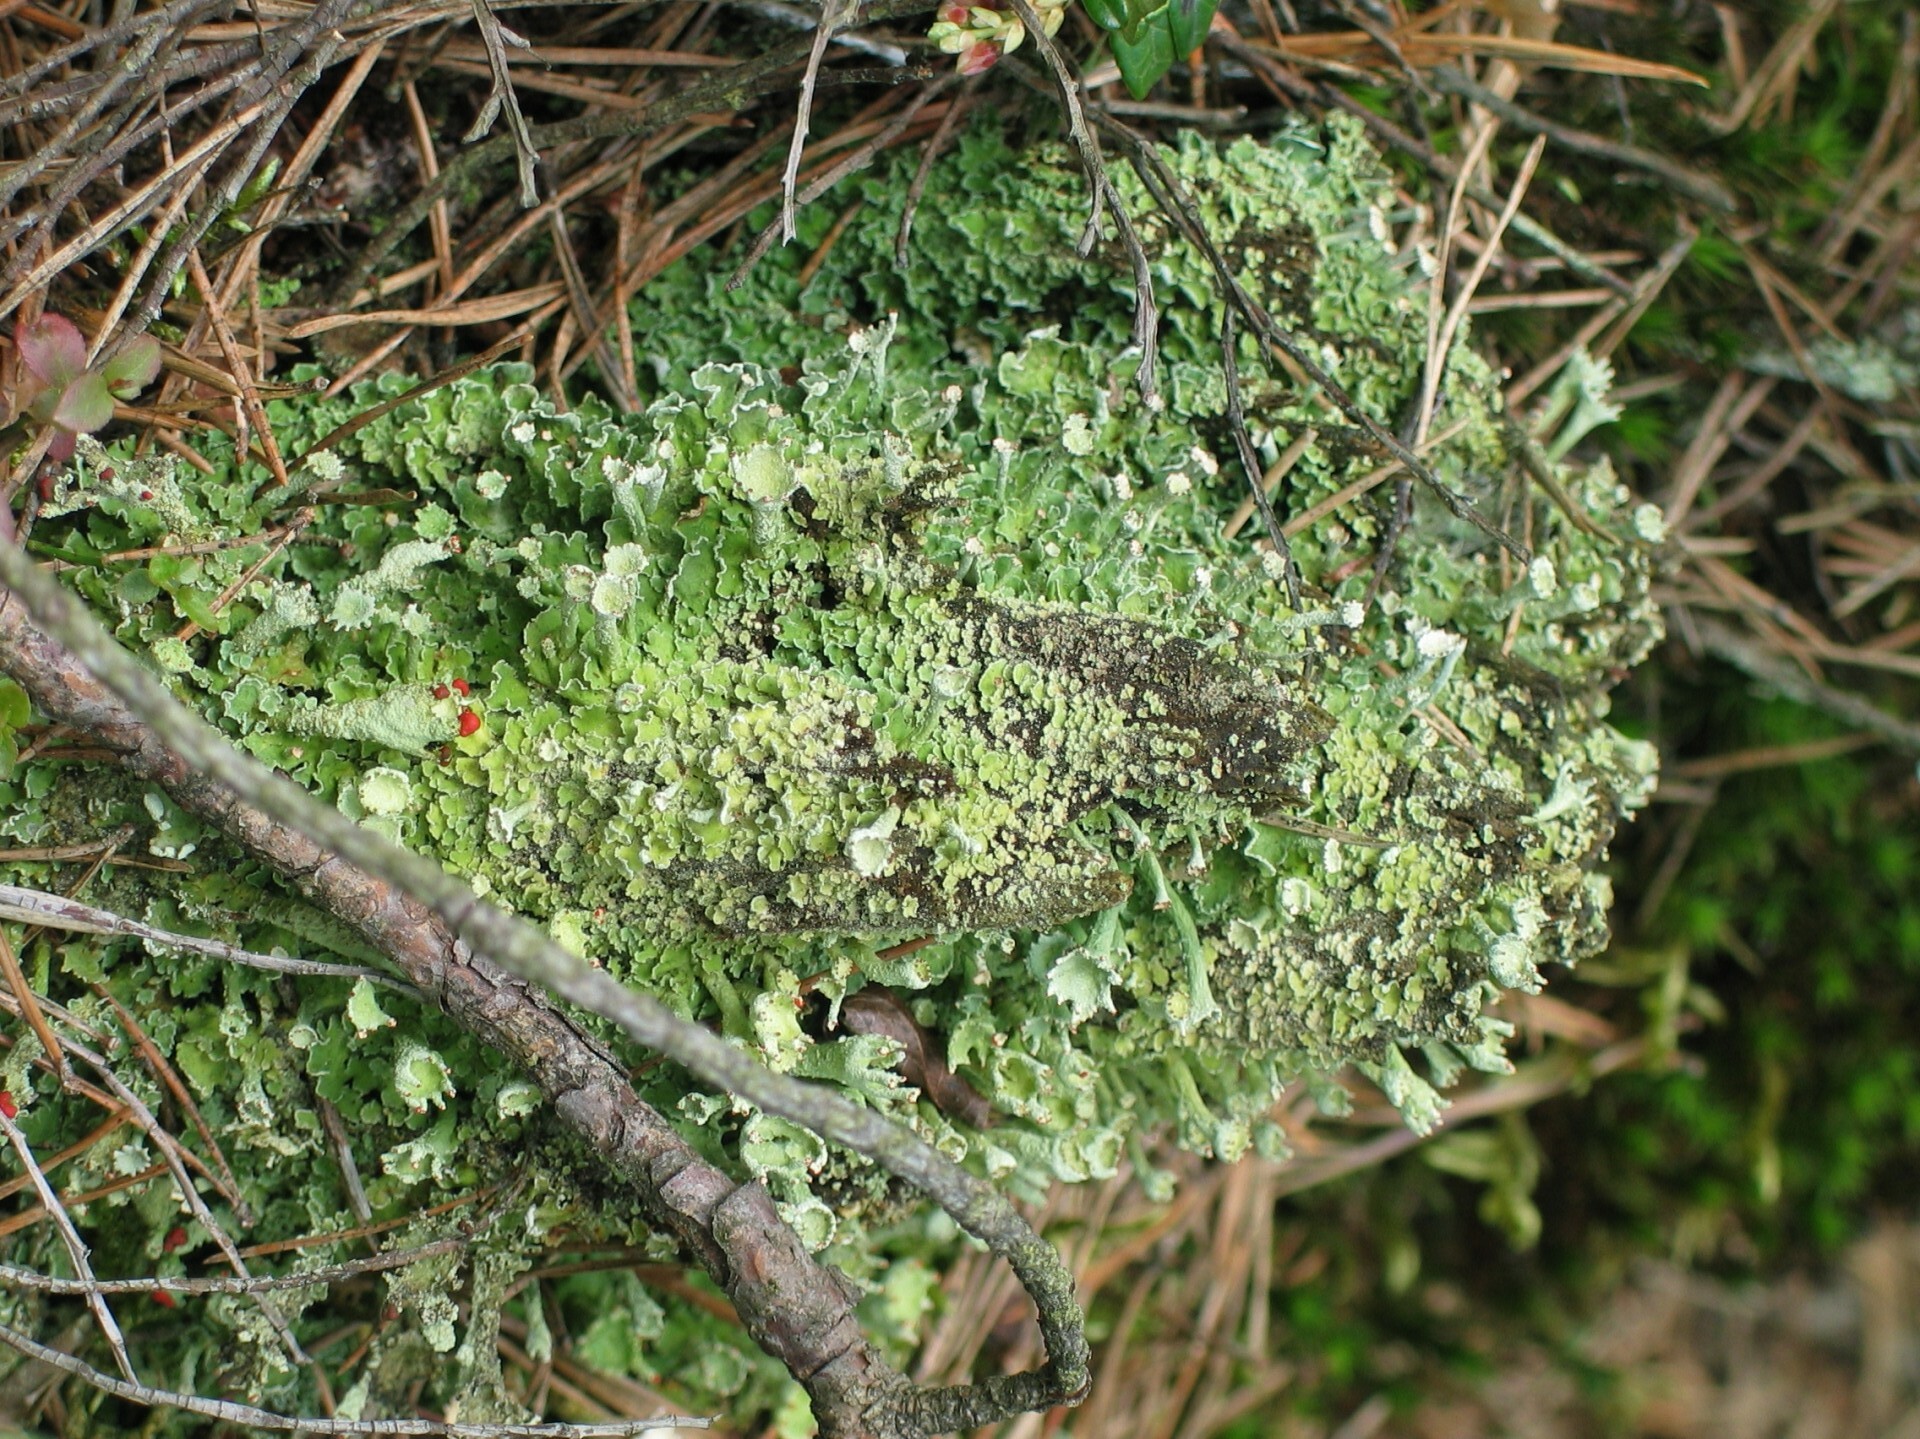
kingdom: Fungi
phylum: Ascomycota
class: Lecanoromycetes
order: Lecanorales
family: Cladoniaceae
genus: Cladonia
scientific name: Cladonia digitata
